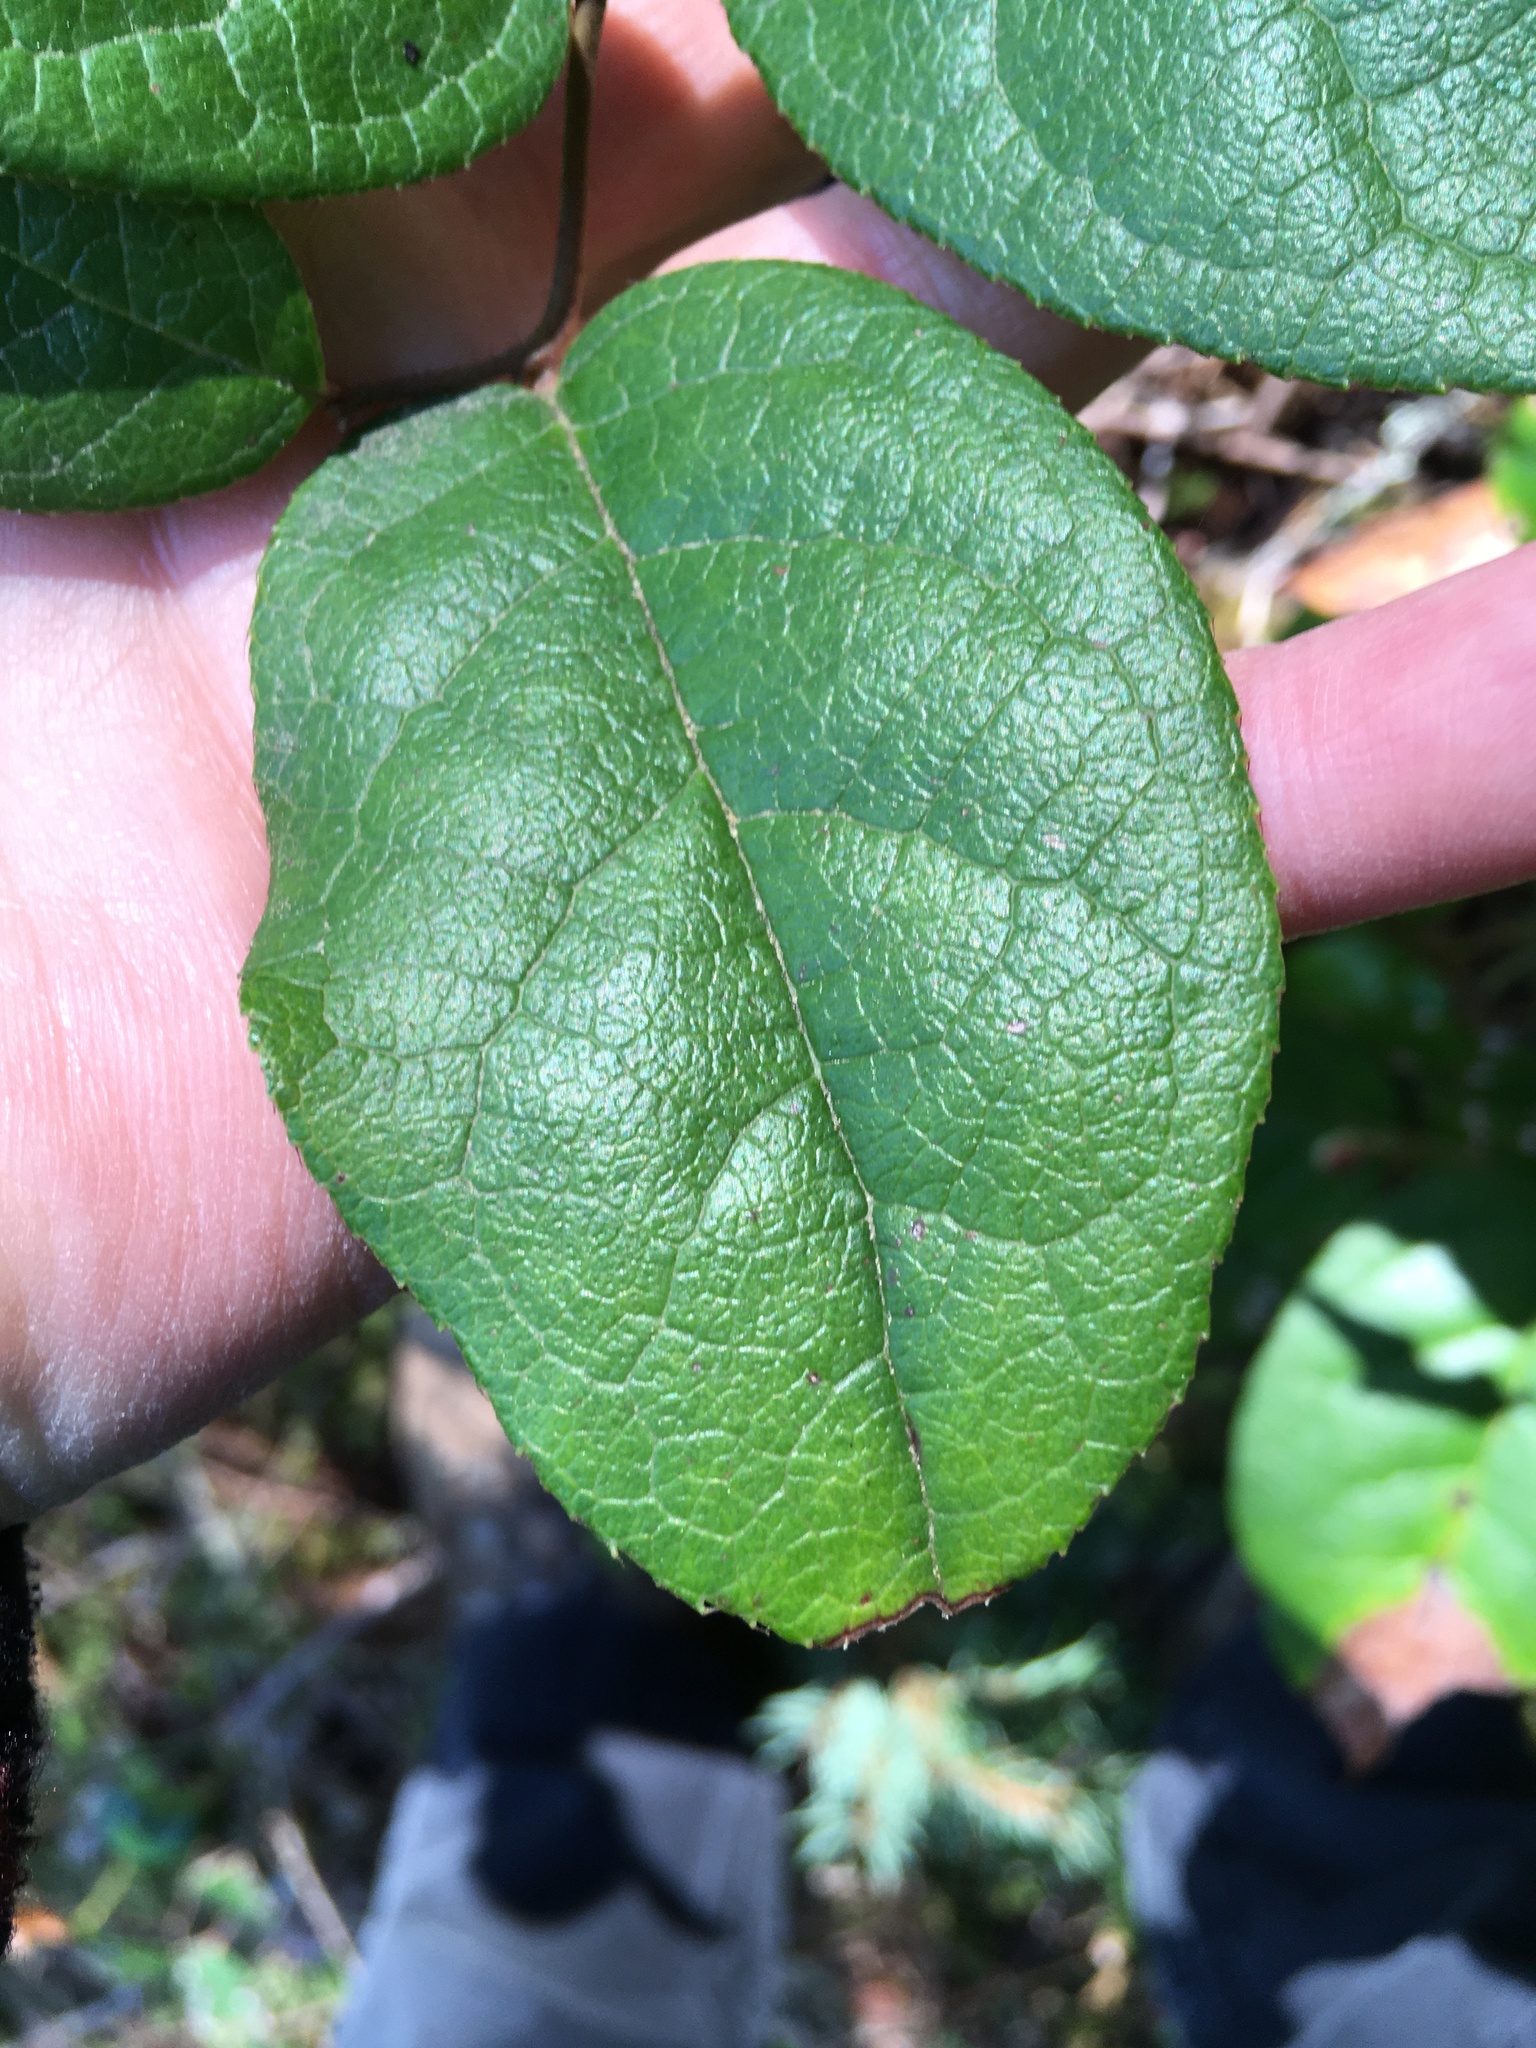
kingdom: Plantae
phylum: Tracheophyta
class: Magnoliopsida
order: Ericales
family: Ericaceae
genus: Gaultheria
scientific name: Gaultheria shallon
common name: Shallon
